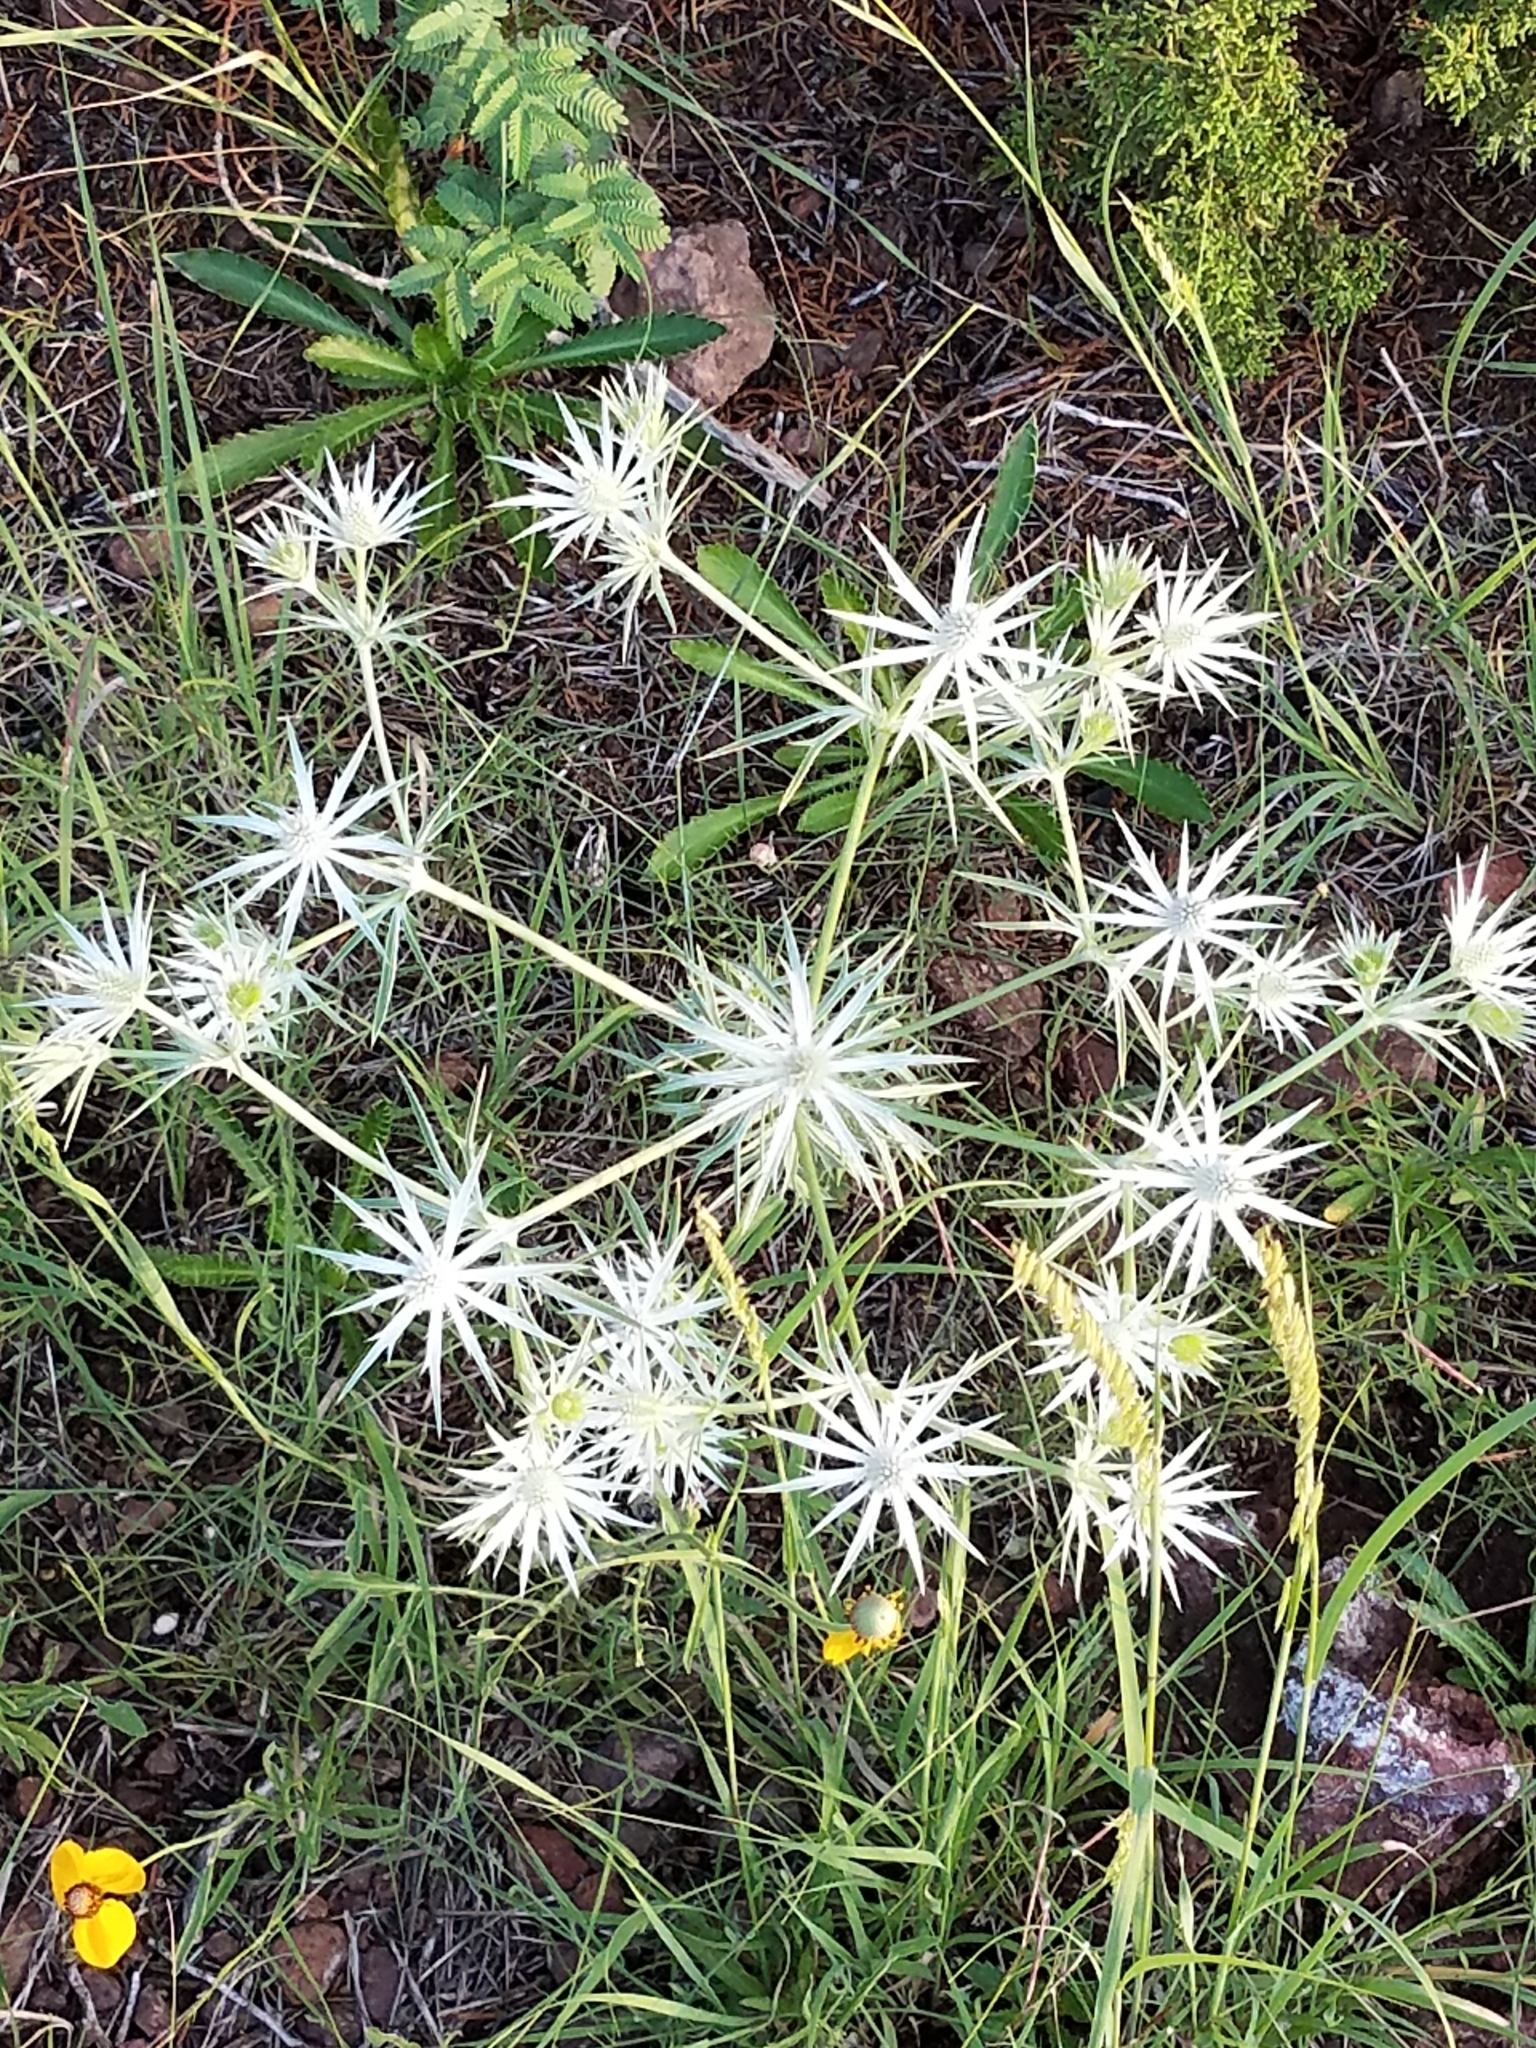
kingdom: Plantae
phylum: Tracheophyta
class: Magnoliopsida
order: Apiales
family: Apiaceae
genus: Eryngium
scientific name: Eryngium heterophyllum
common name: Mexican thistle
